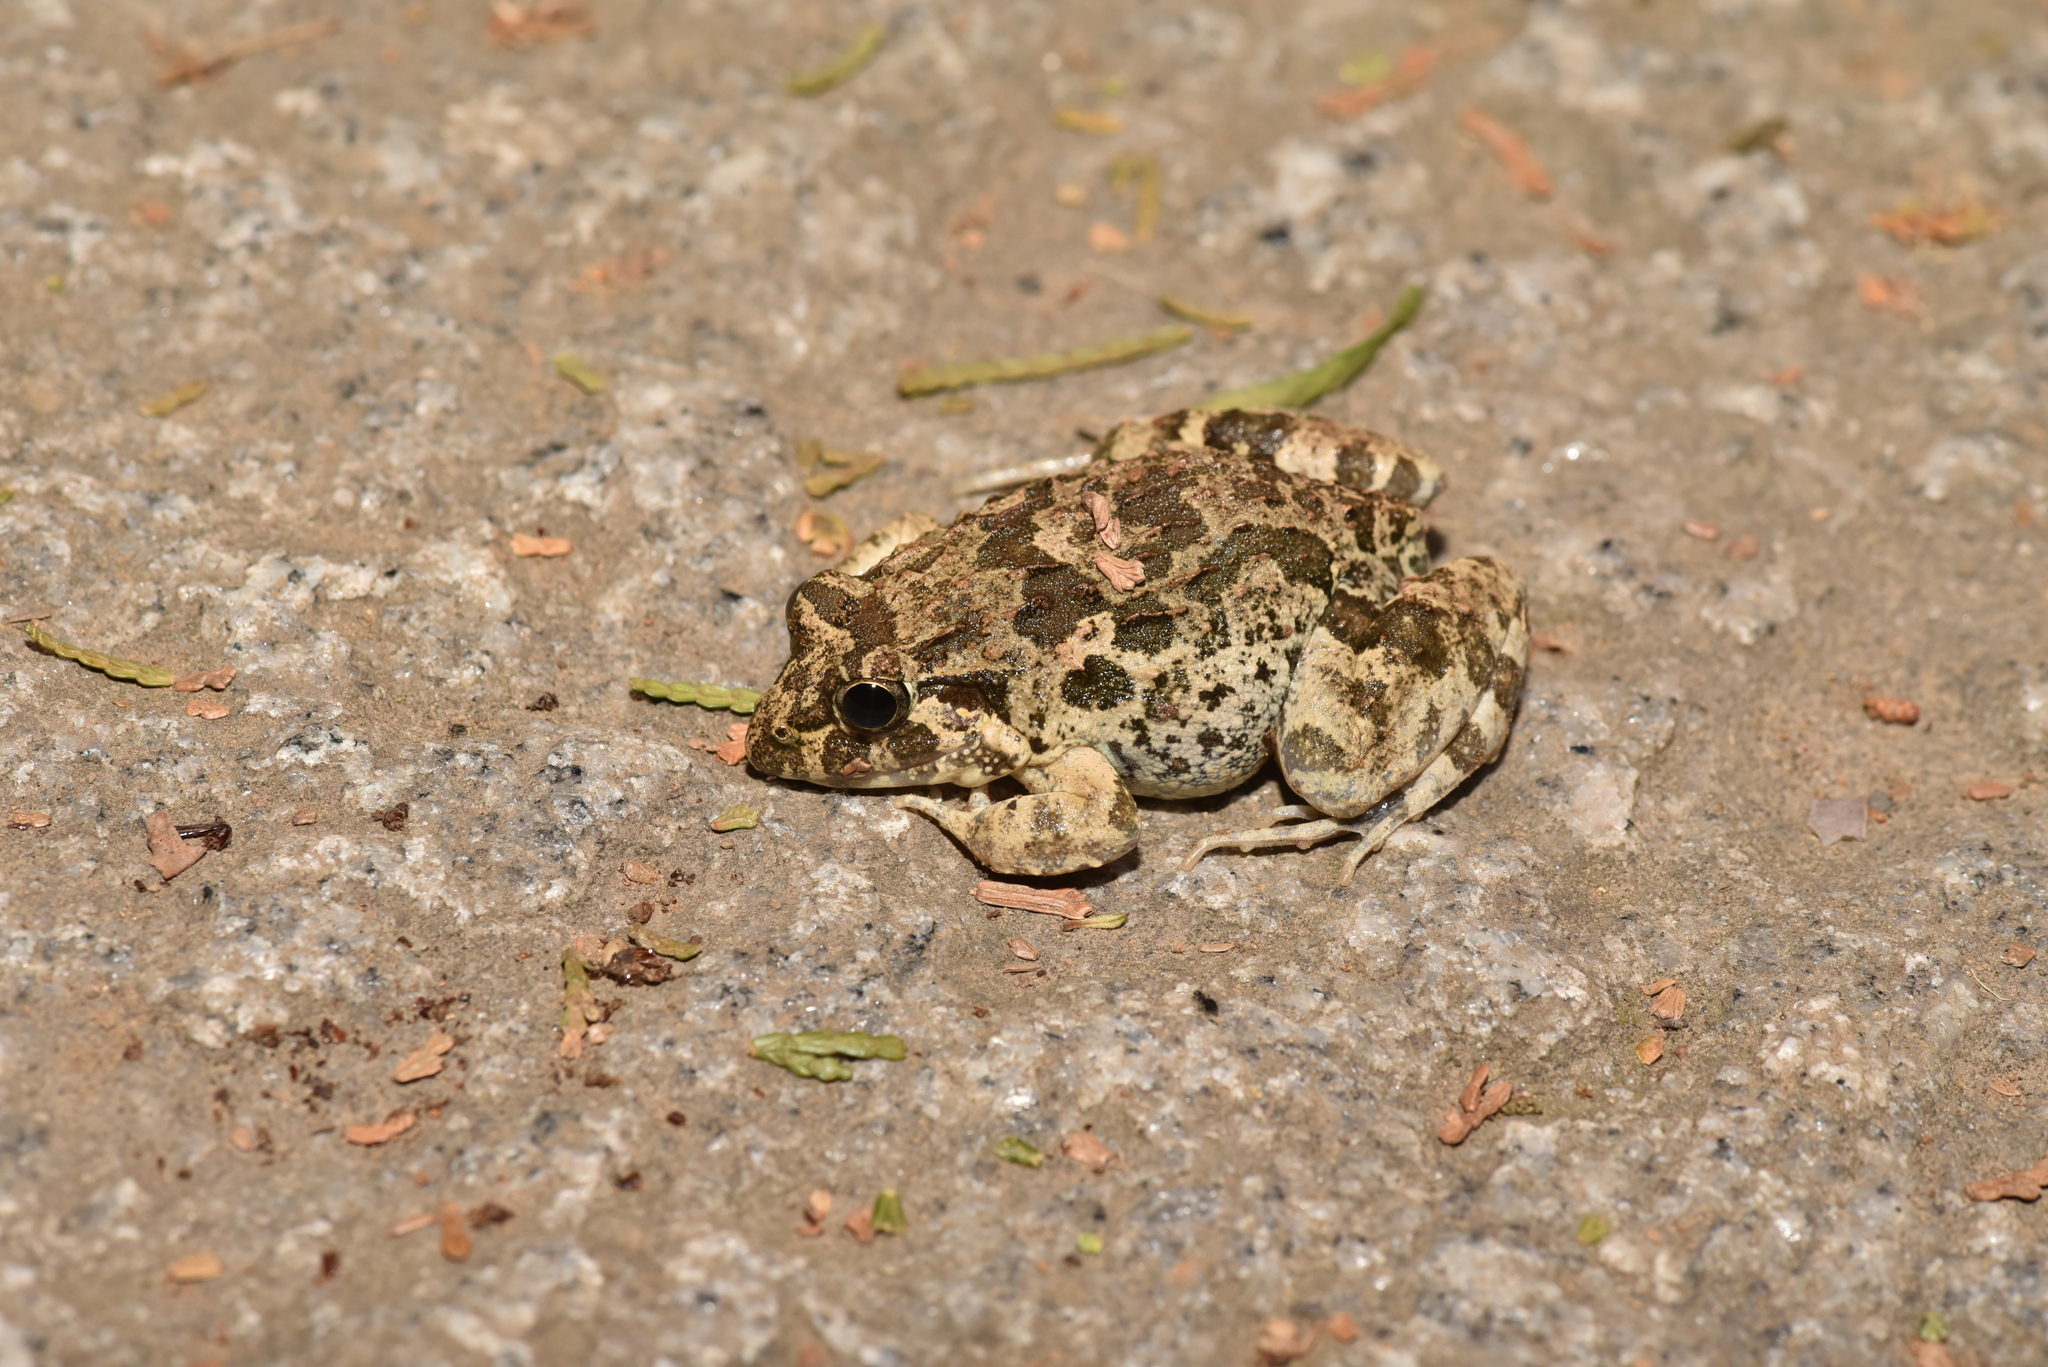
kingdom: Animalia
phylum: Chordata
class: Amphibia
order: Anura
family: Dicroglossidae
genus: Fejervarya
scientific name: Fejervarya limnocharis
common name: Asian grass frog/common pond frog/field frog/grass frog/indian rice frog
